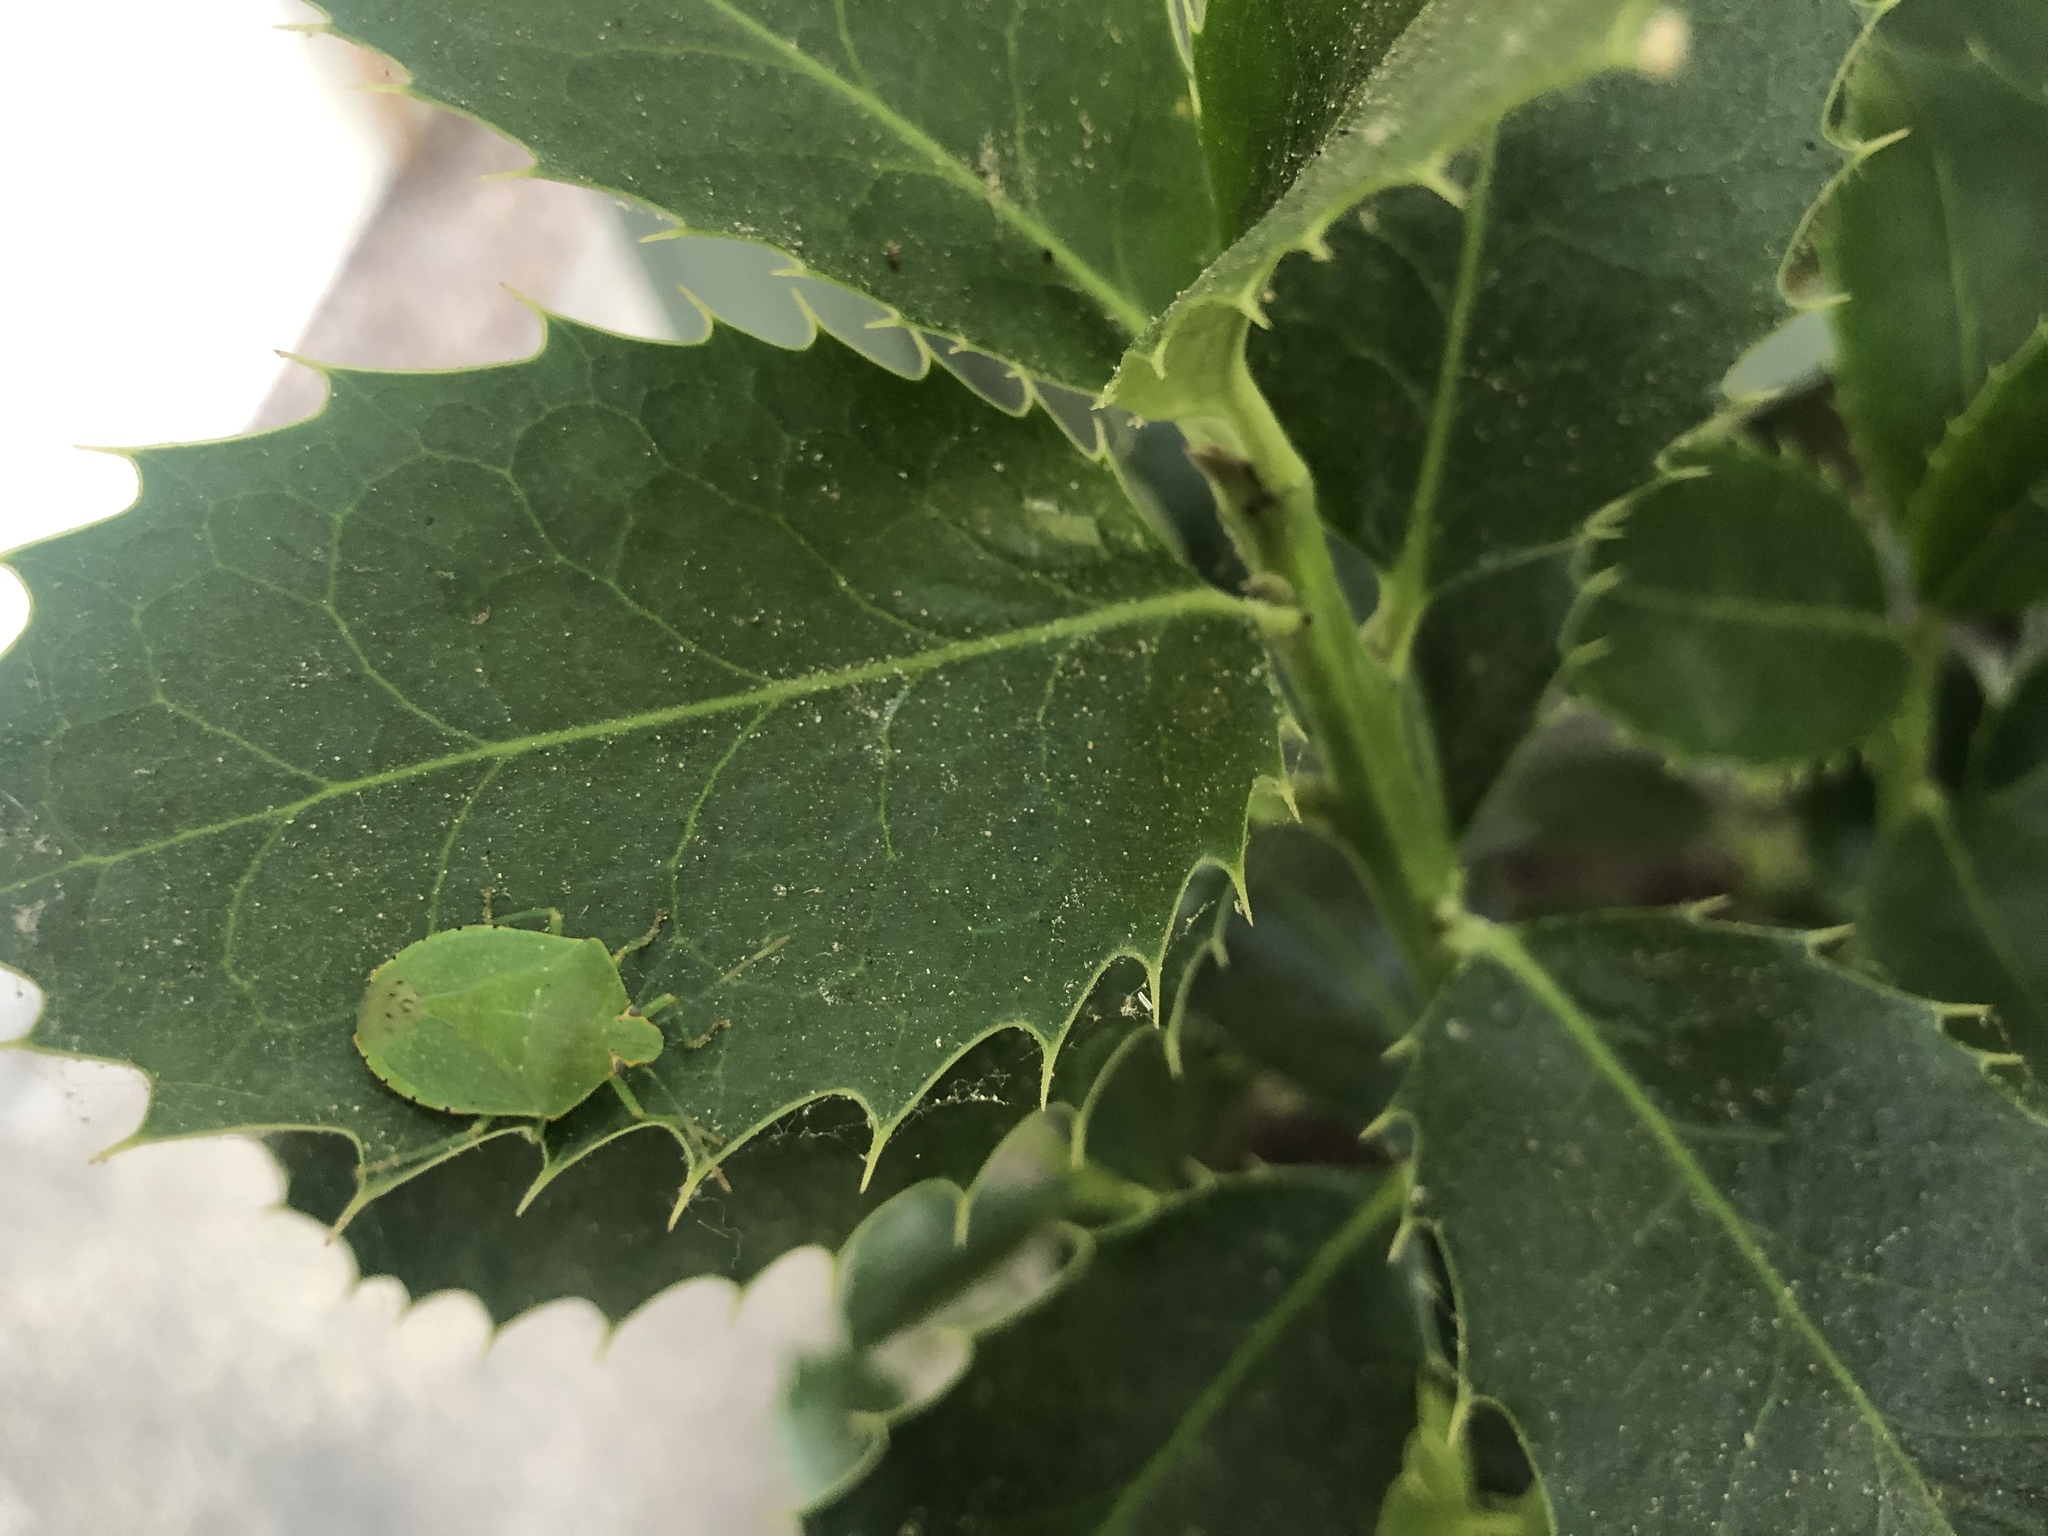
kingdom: Animalia
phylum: Arthropoda
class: Insecta
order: Hemiptera
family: Pentatomidae
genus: Chinavia
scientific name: Chinavia hilaris
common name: Green stink bug
